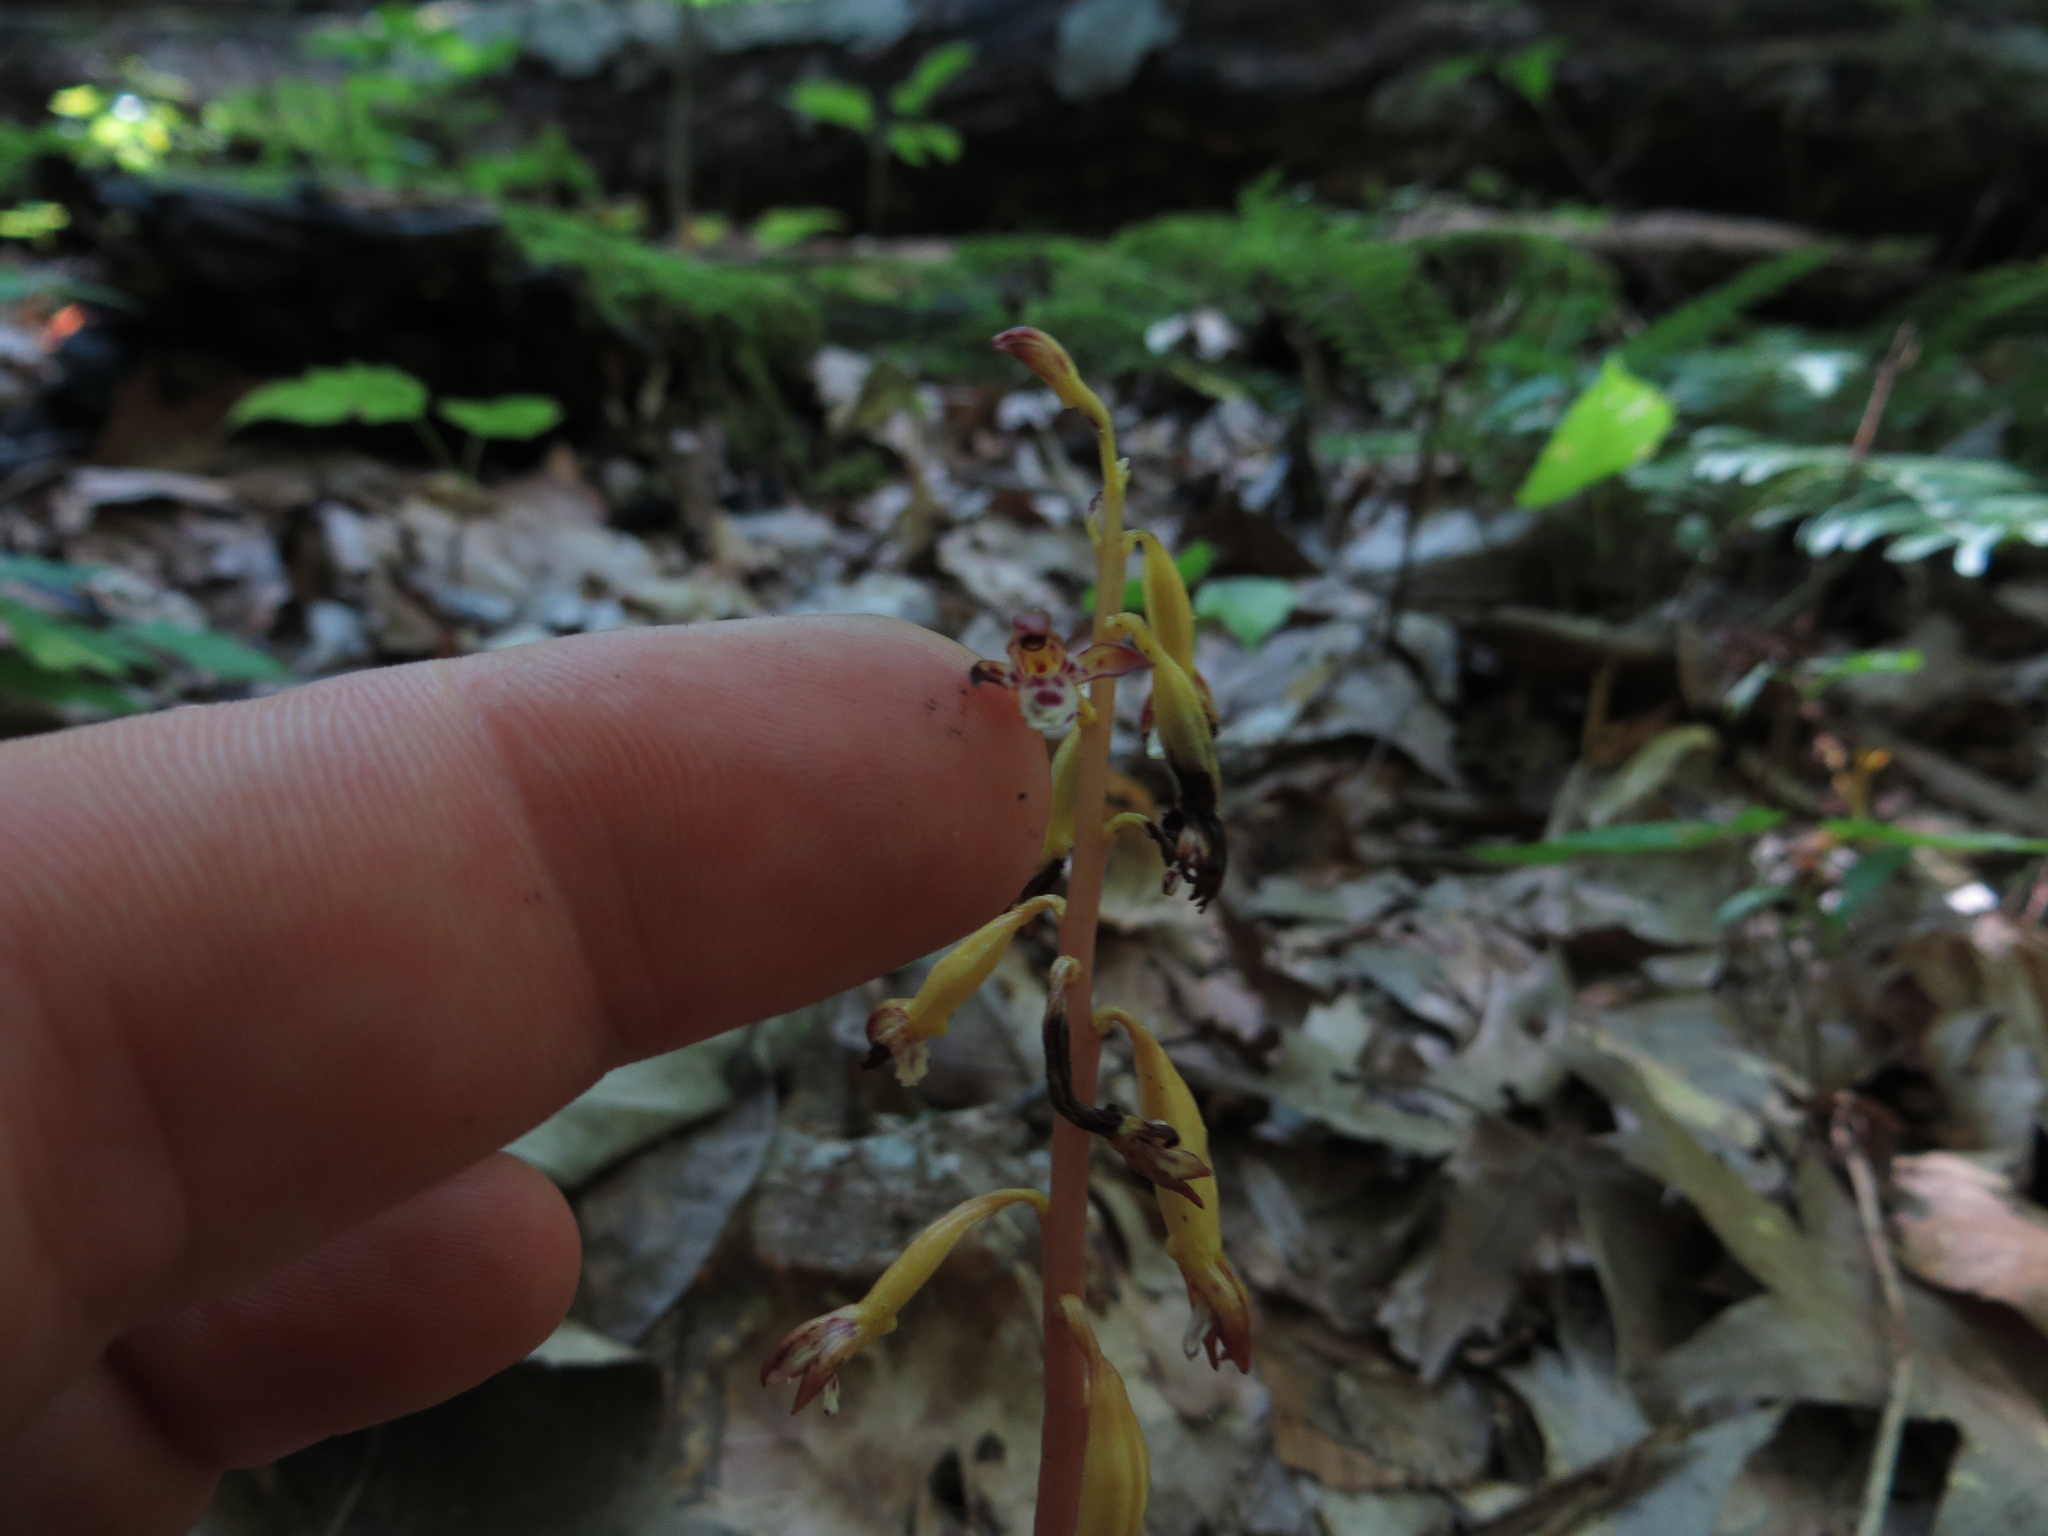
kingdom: Plantae
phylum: Tracheophyta
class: Liliopsida
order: Asparagales
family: Orchidaceae
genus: Corallorhiza
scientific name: Corallorhiza maculata
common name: Spotted coralroot
